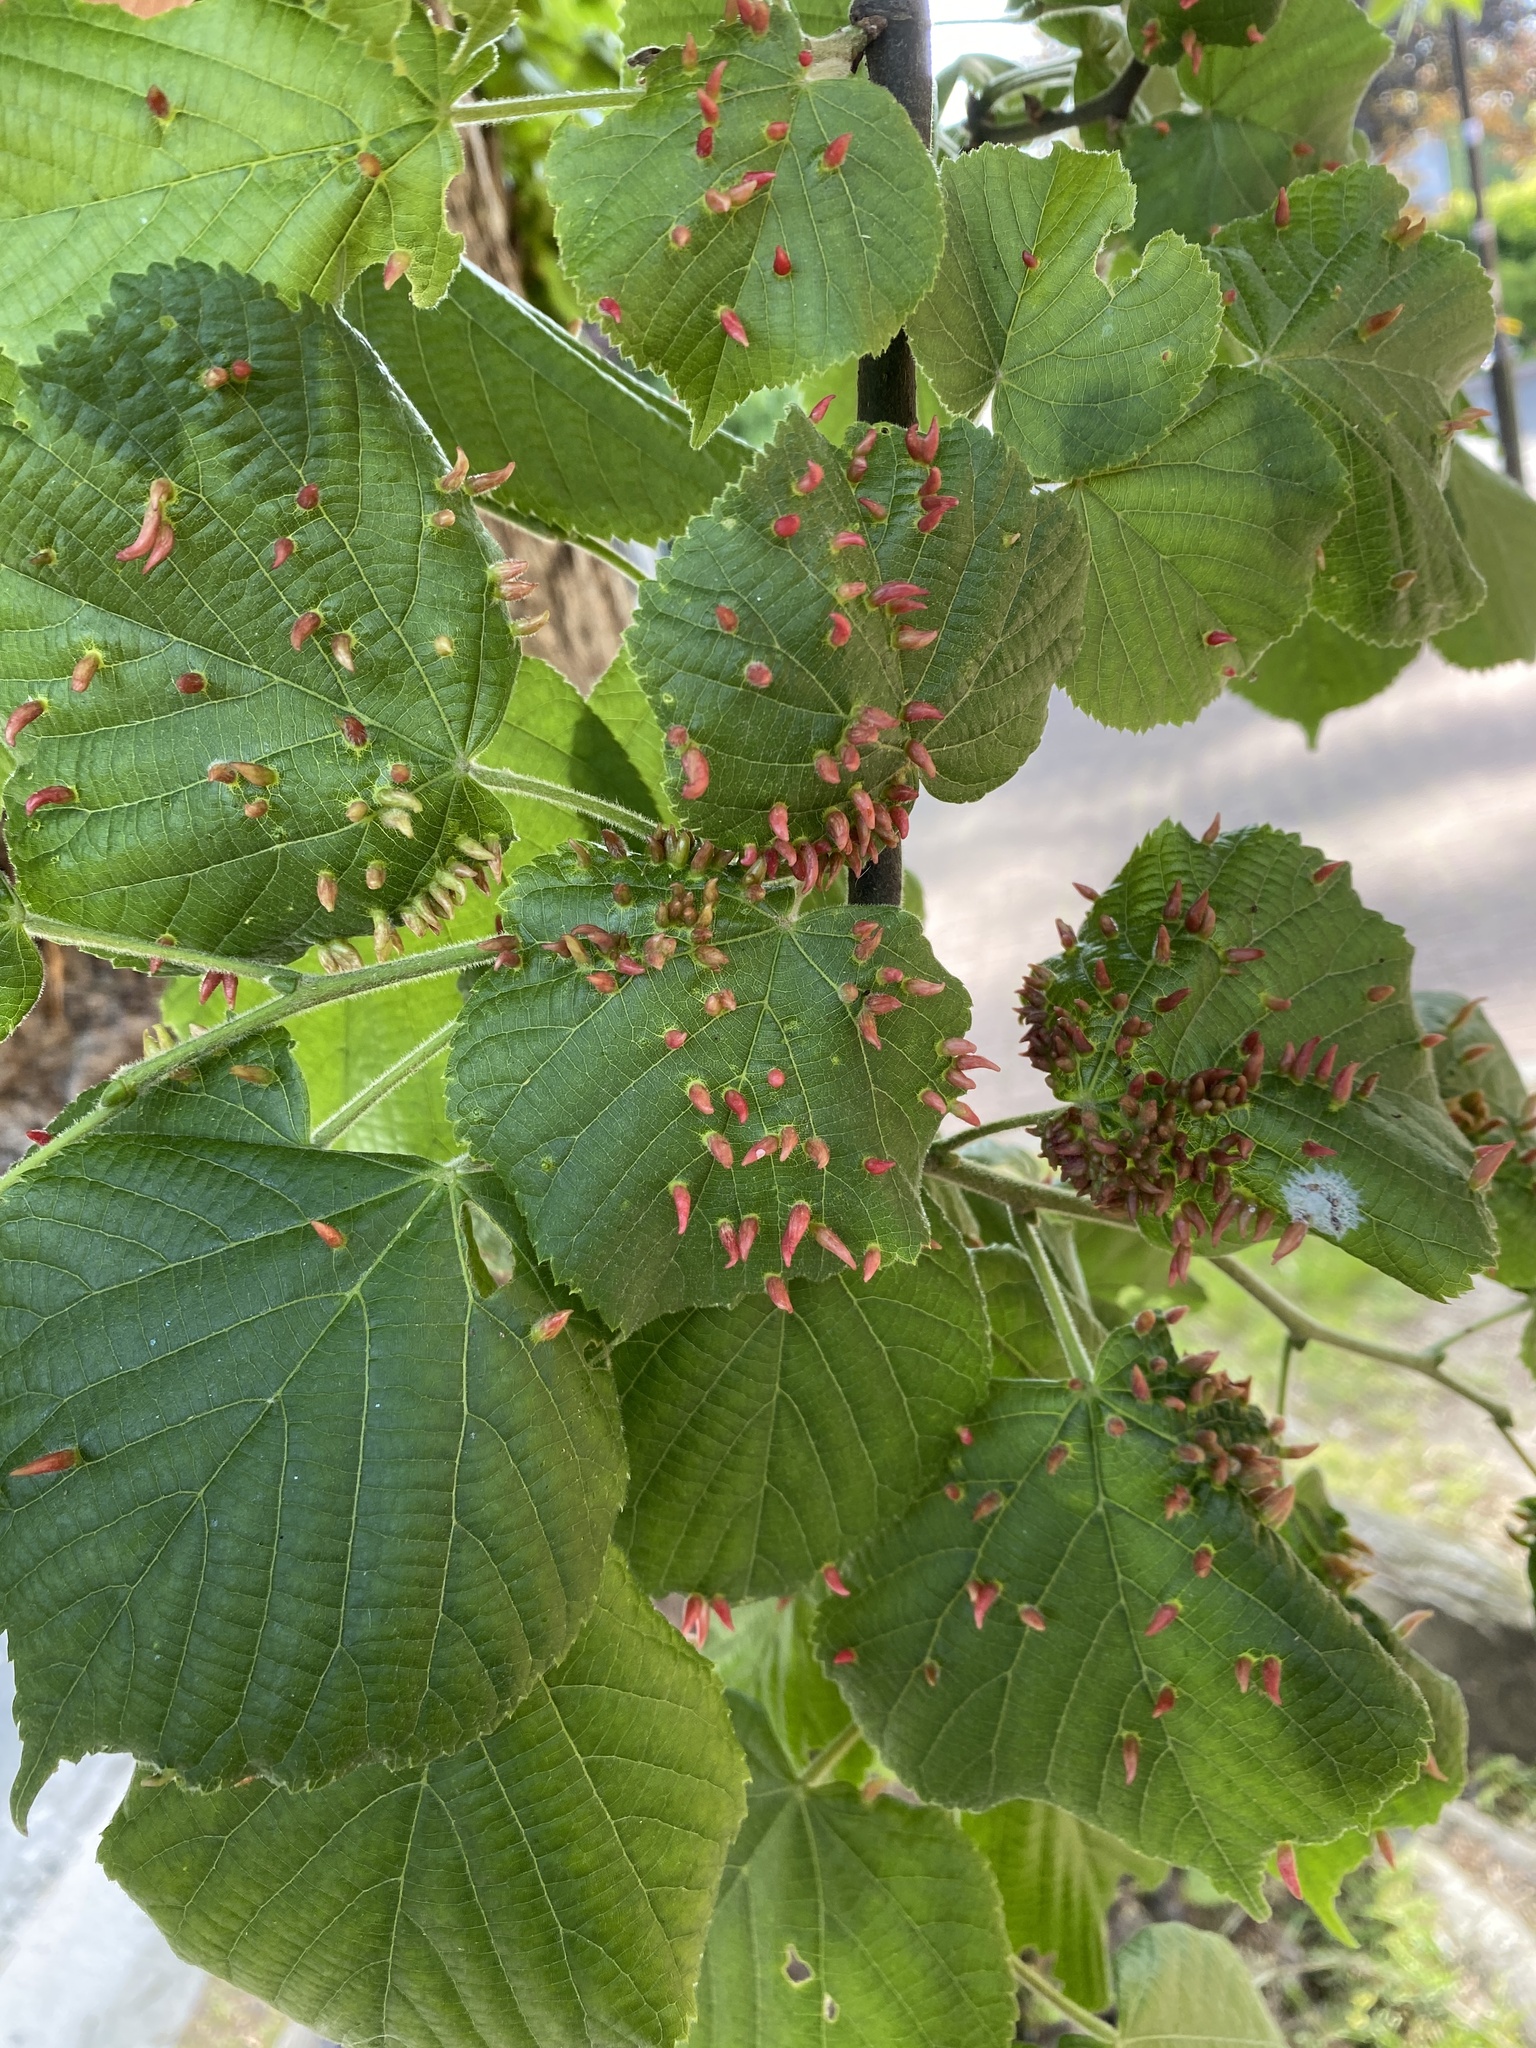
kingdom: Animalia
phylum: Arthropoda
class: Arachnida
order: Trombidiformes
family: Eriophyidae
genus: Eriophyes
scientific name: Eriophyes tiliae
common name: Red nail gall mite
